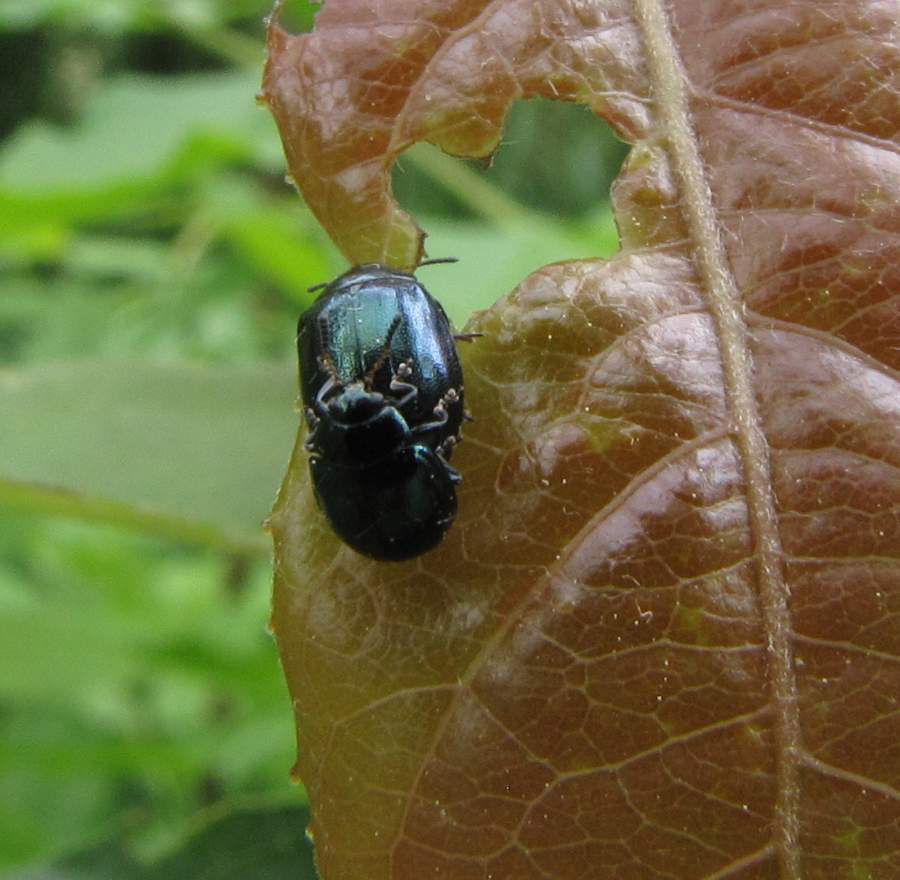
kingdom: Animalia
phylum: Arthropoda
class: Insecta
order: Coleoptera
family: Chrysomelidae
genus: Plagiodera
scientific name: Plagiodera versicolora
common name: Imported willow leaf beetle
